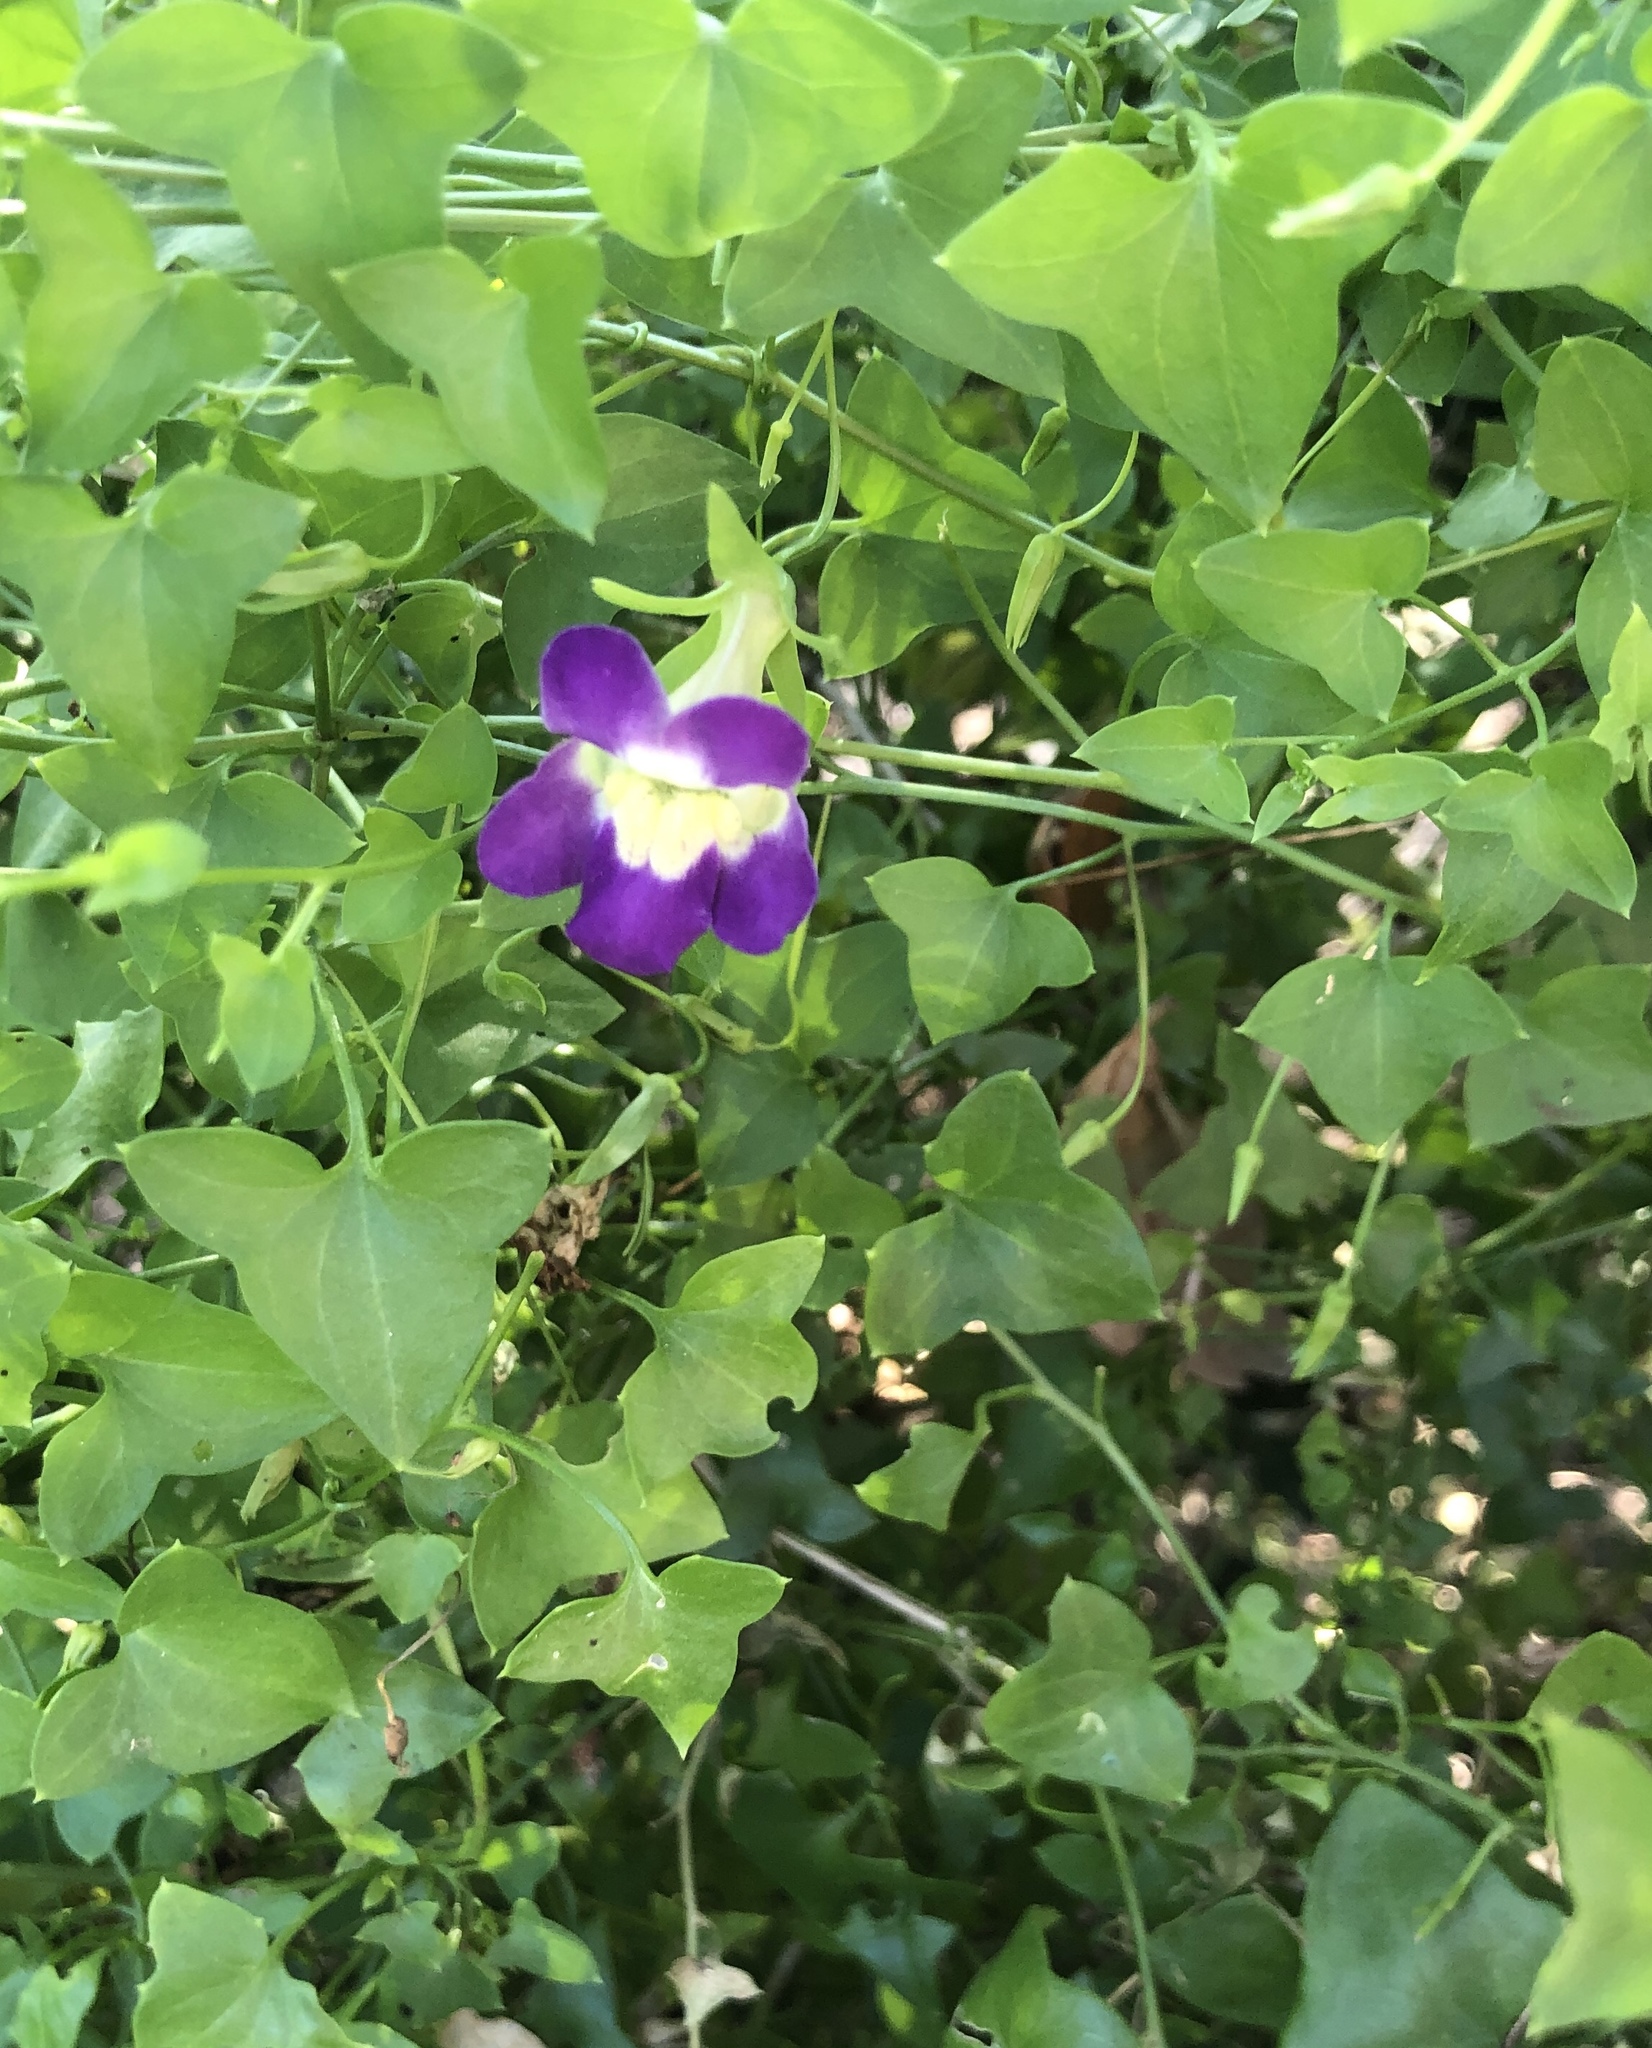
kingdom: Plantae
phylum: Tracheophyta
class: Magnoliopsida
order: Lamiales
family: Plantaginaceae
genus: Maurandella
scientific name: Maurandella antirrhiniflora
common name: Violet twining-snapdragon
